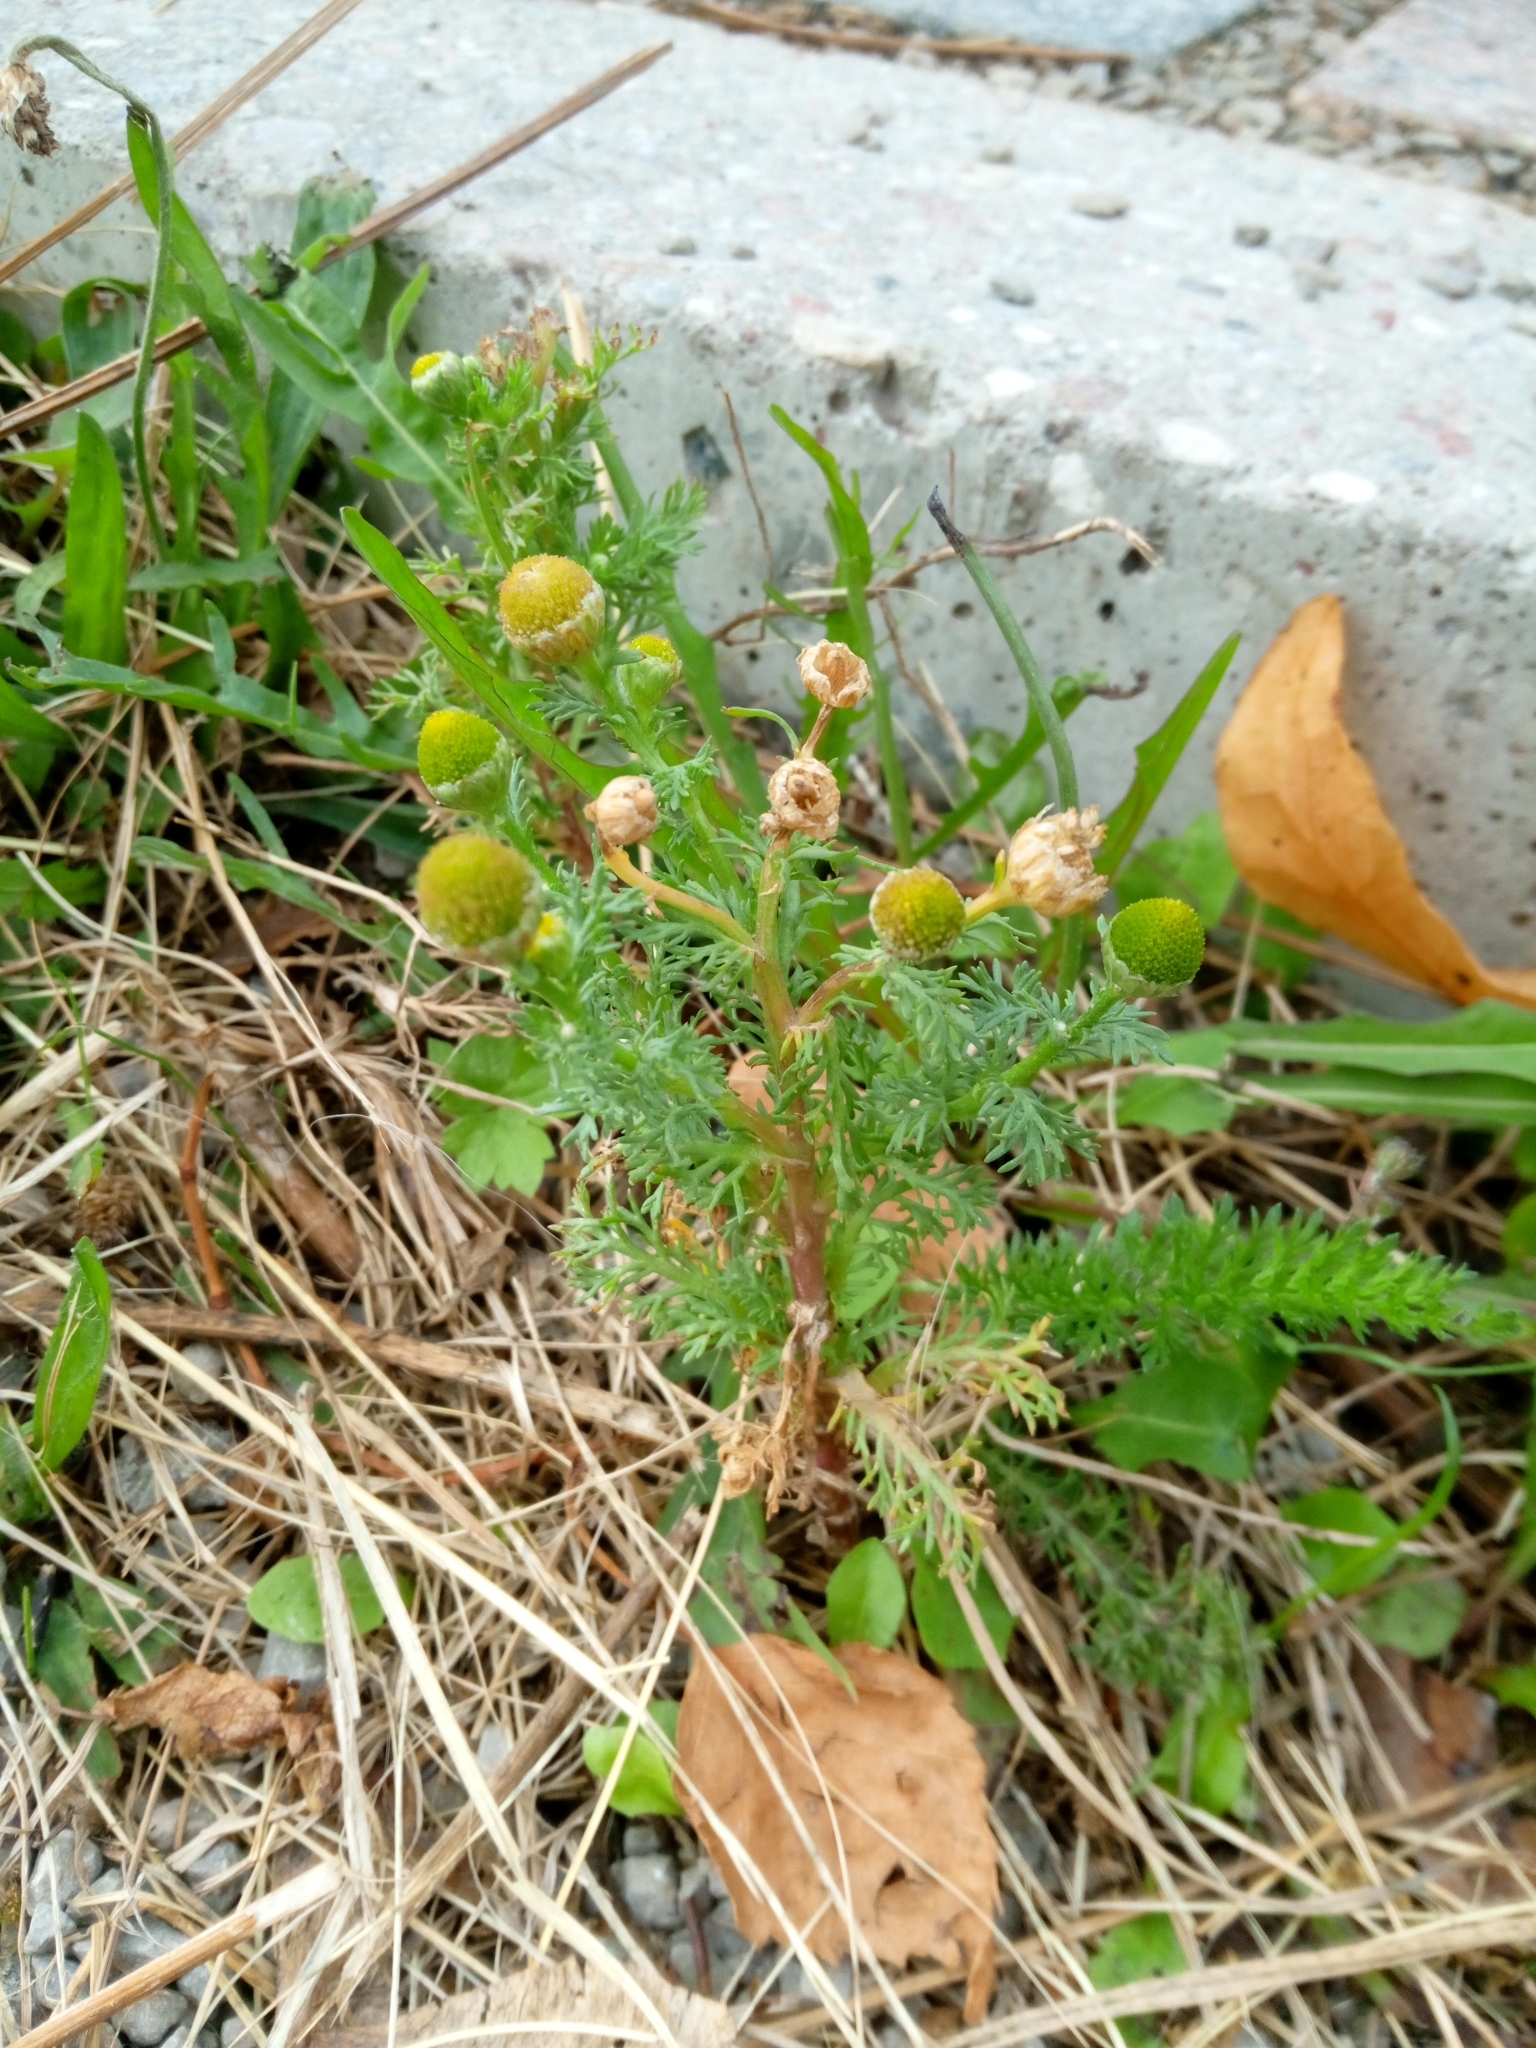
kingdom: Plantae
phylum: Tracheophyta
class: Magnoliopsida
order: Asterales
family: Asteraceae
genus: Matricaria
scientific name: Matricaria discoidea
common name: Disc mayweed
